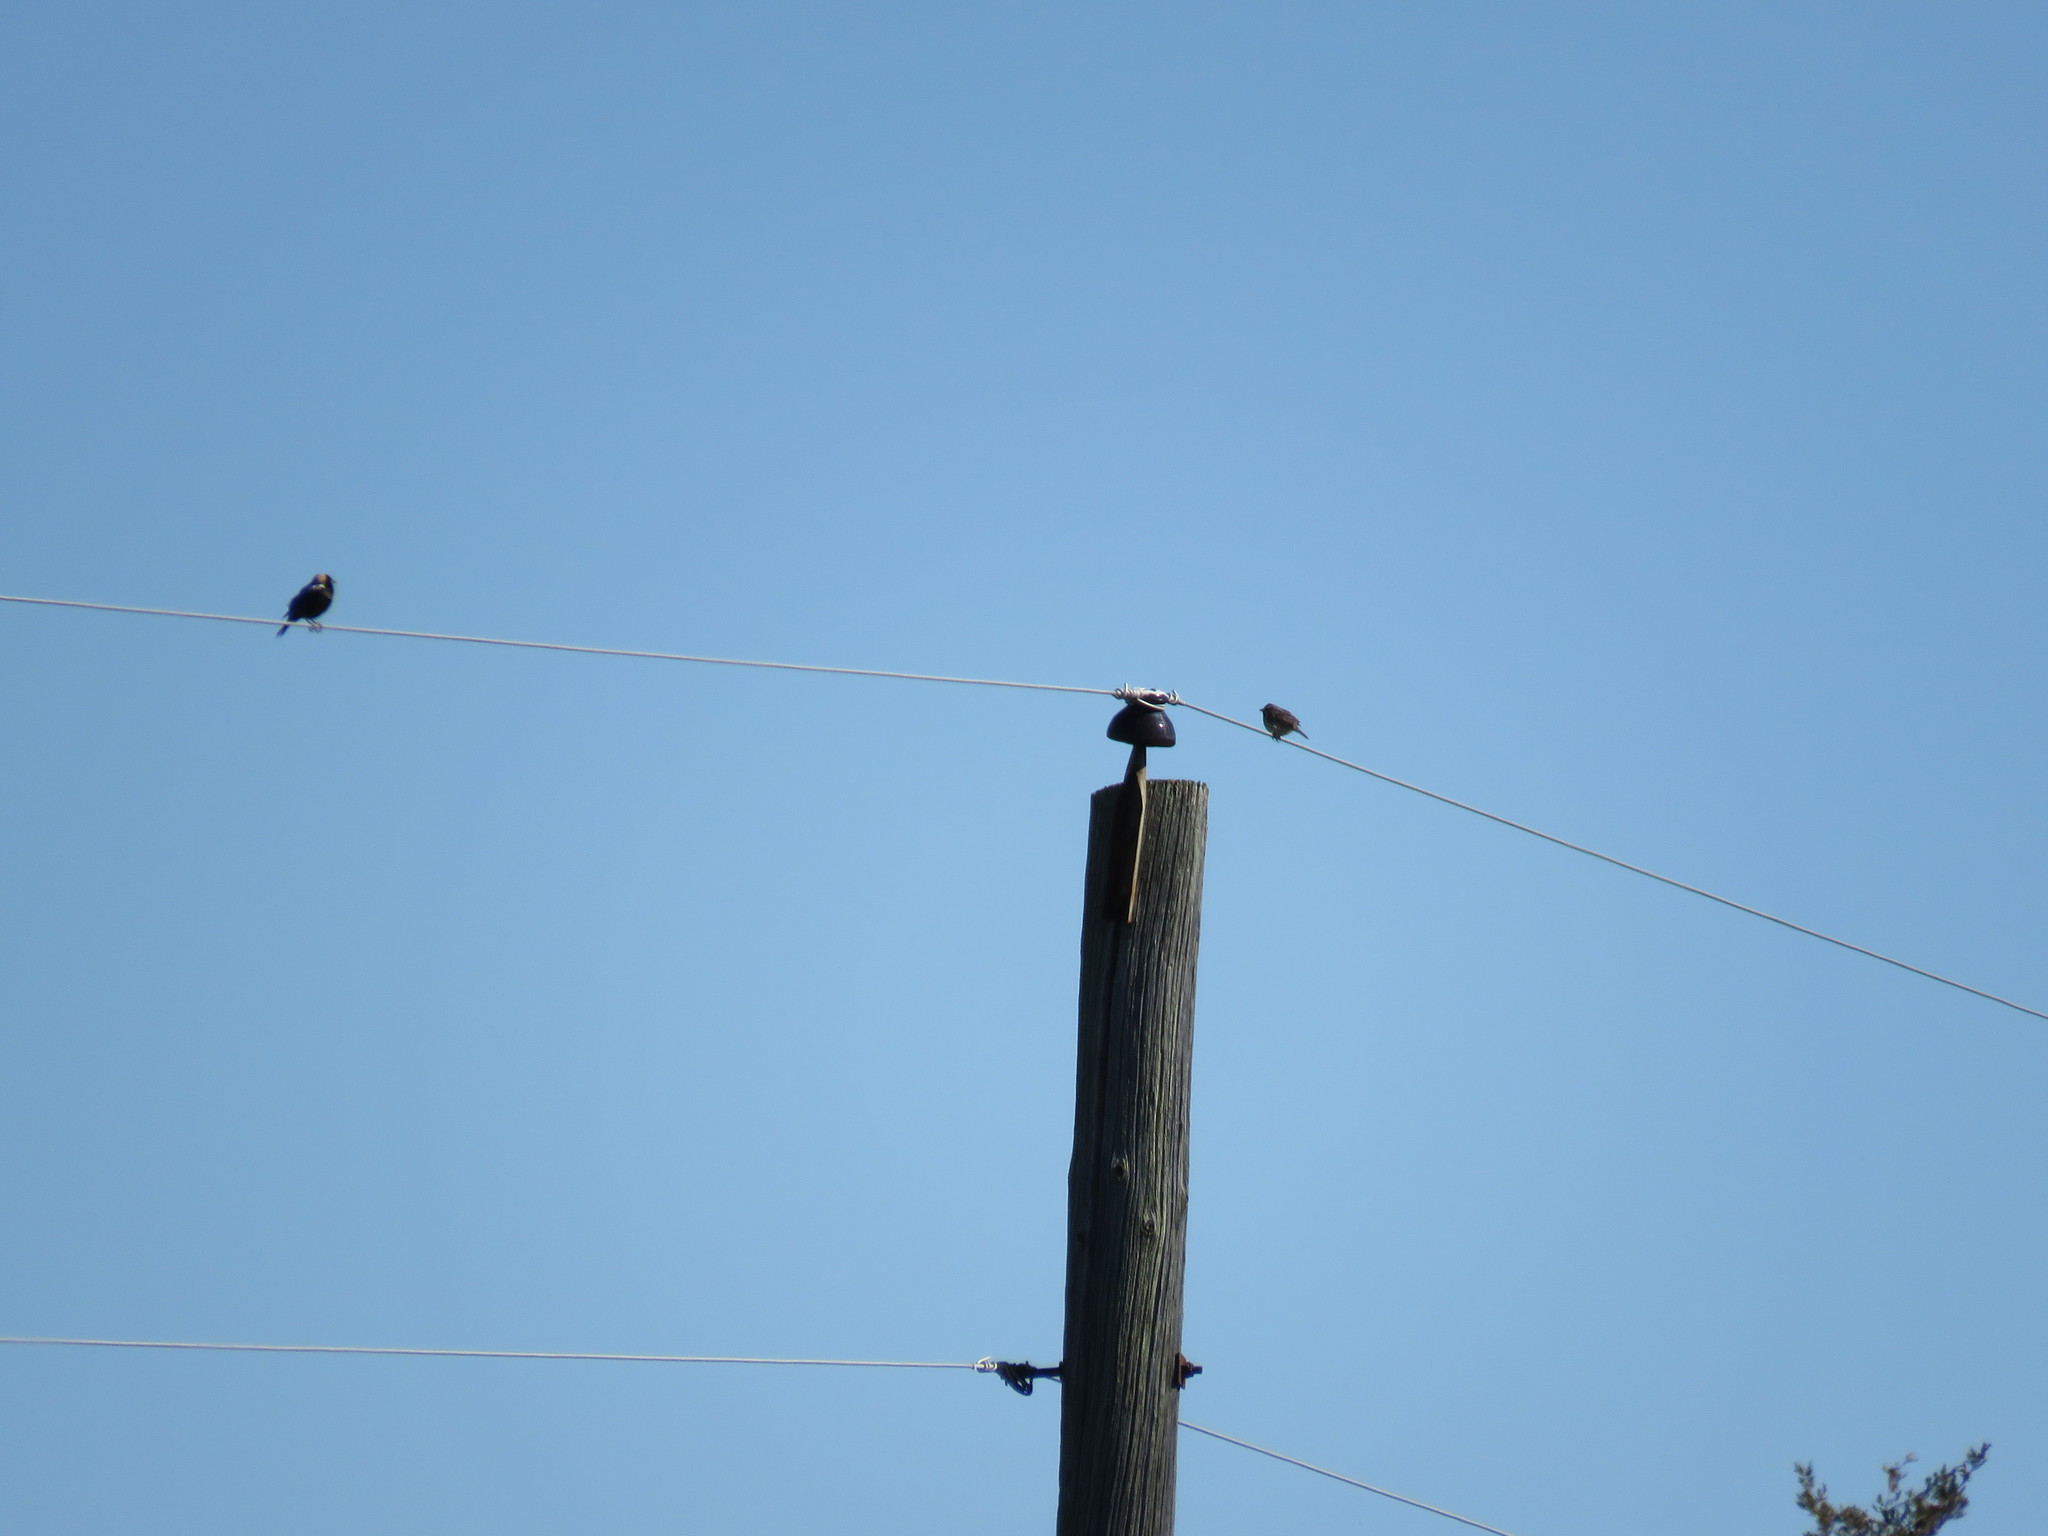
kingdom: Animalia
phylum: Chordata
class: Aves
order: Passeriformes
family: Icteridae
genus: Dolichonyx
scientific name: Dolichonyx oryzivorus
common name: Bobolink
